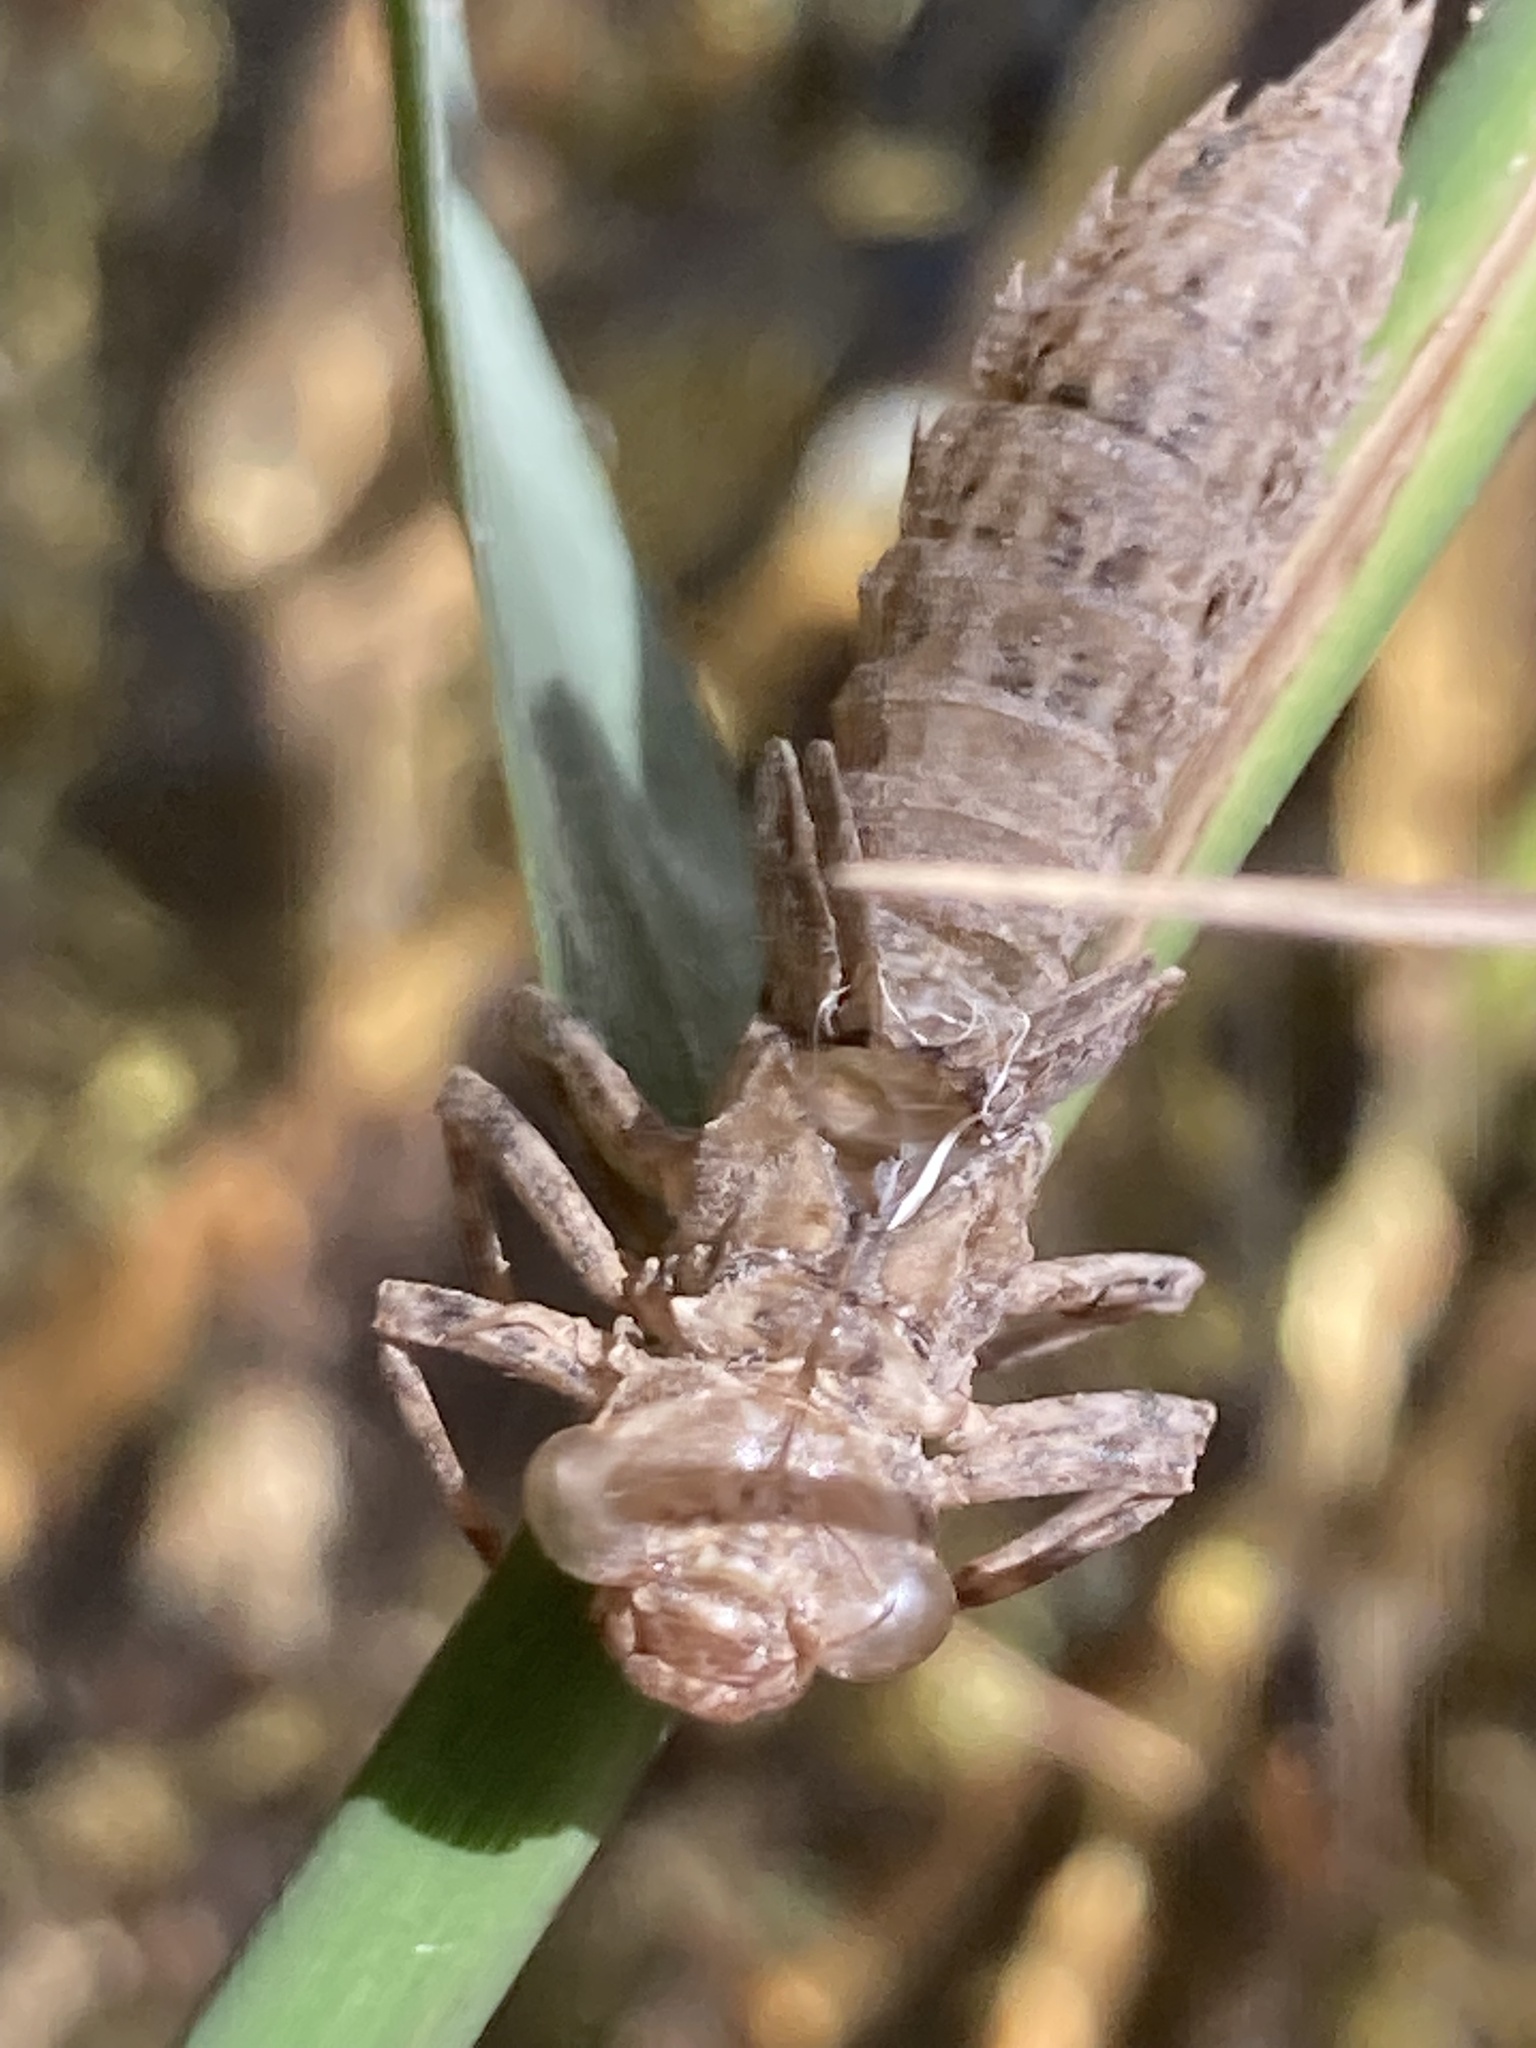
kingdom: Animalia
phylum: Arthropoda
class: Insecta
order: Odonata
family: Aeshnidae
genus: Boyeria
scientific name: Boyeria irene
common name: Western spectre
